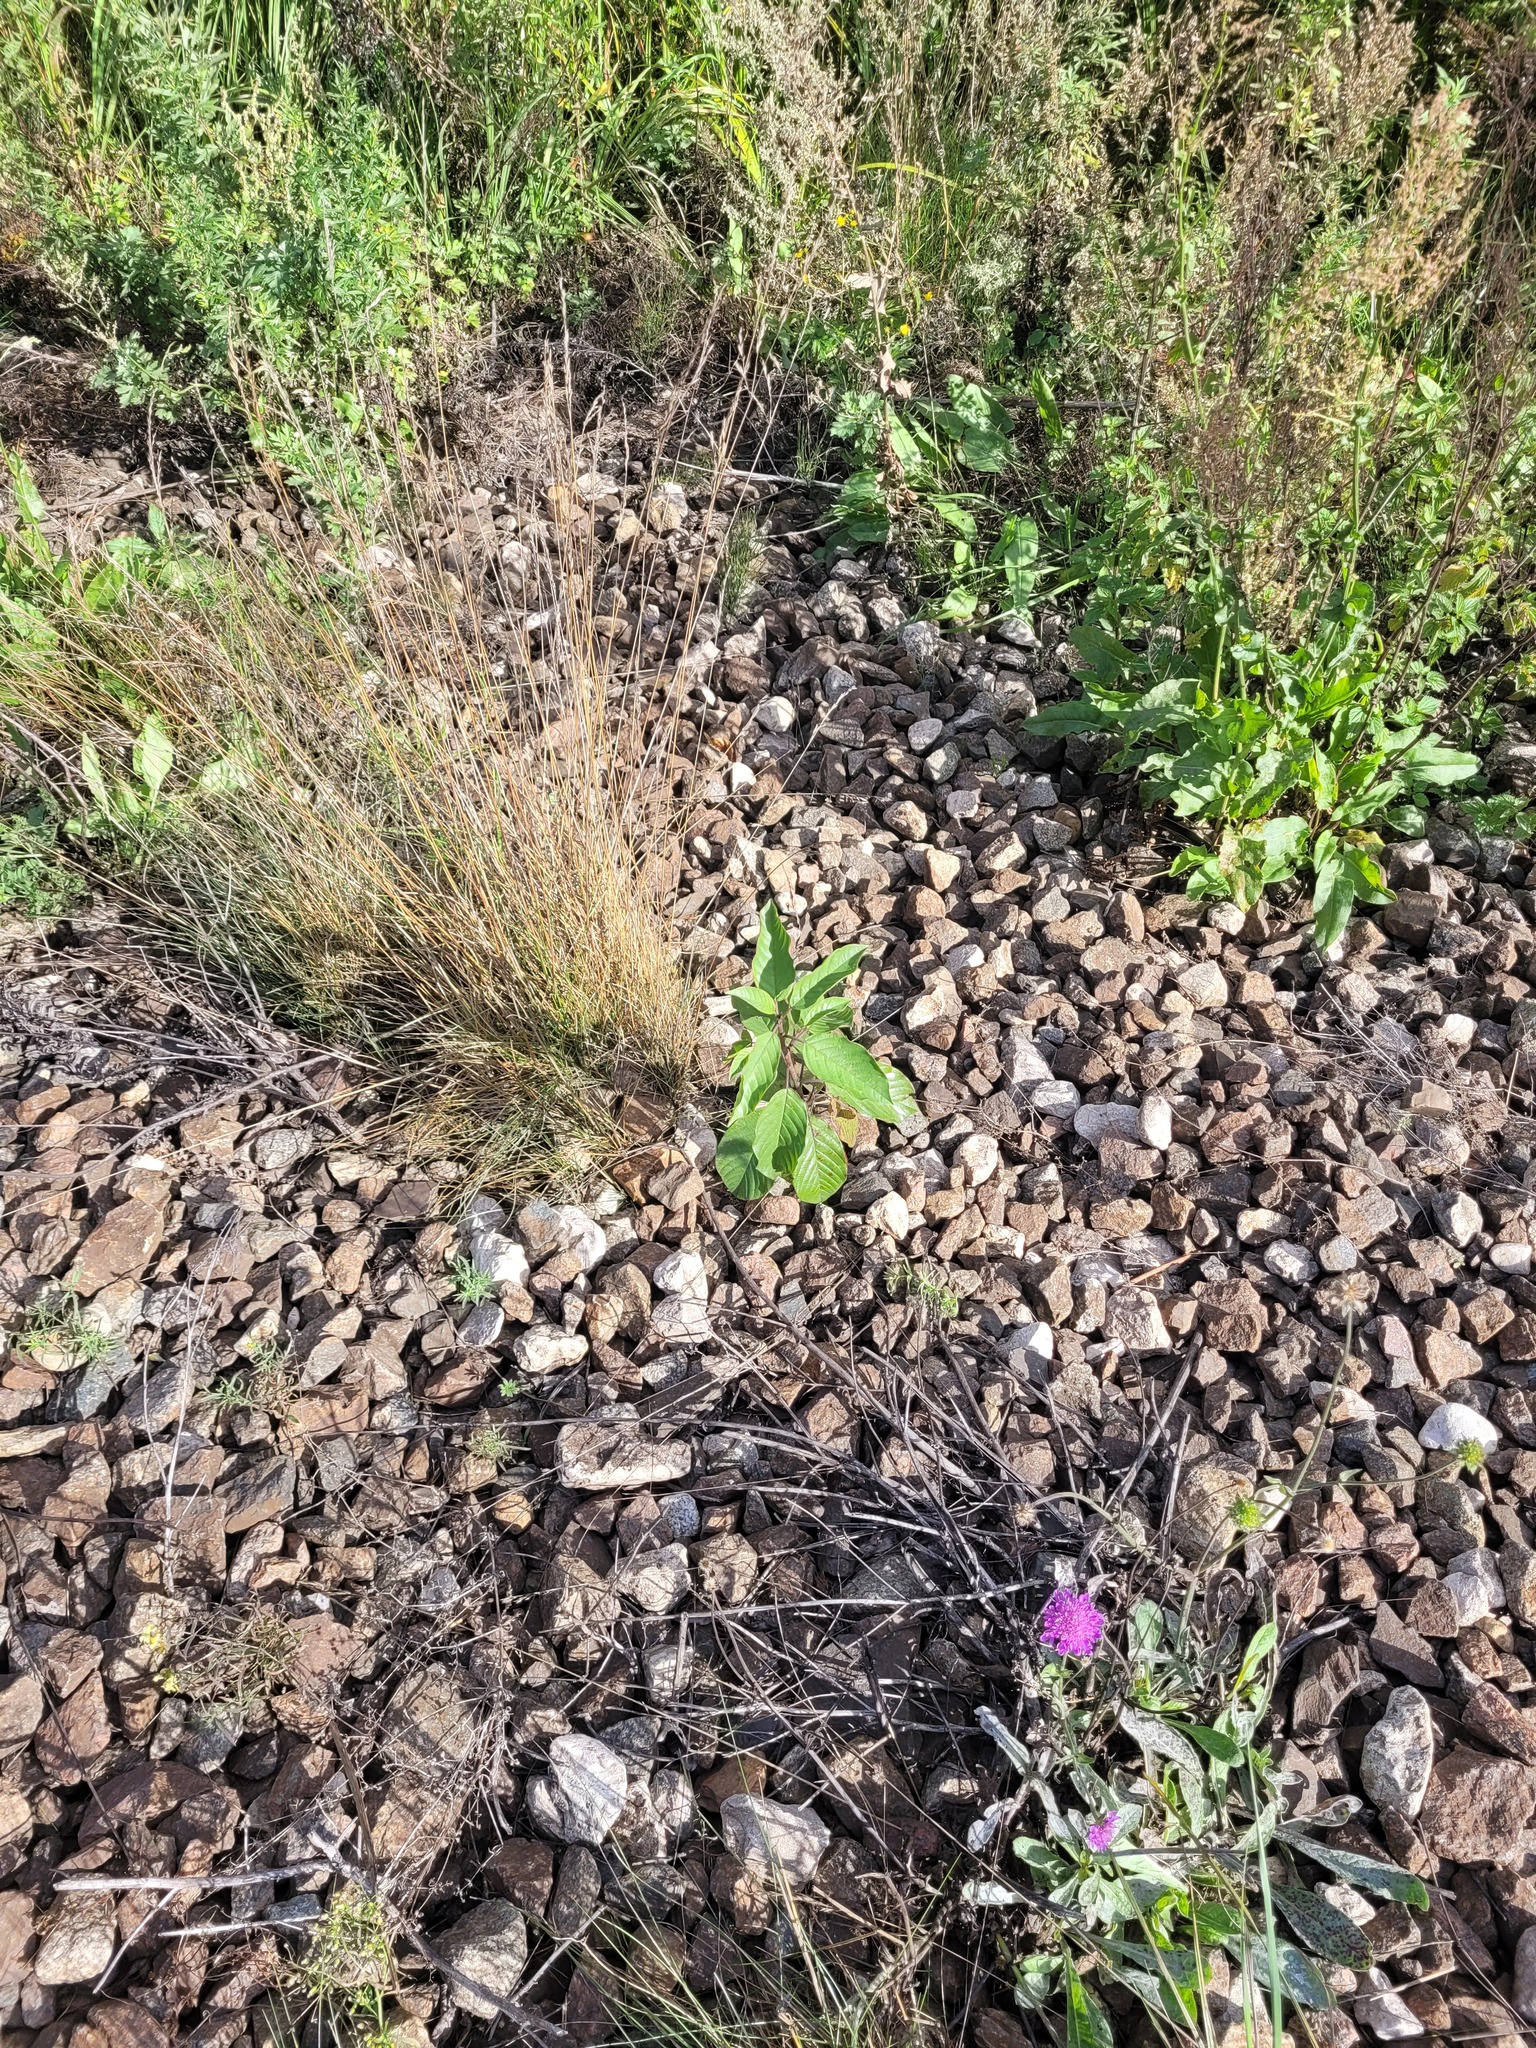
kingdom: Plantae
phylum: Tracheophyta
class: Magnoliopsida
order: Rosales
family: Rhamnaceae
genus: Frangula
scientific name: Frangula alnus
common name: Alder buckthorn
